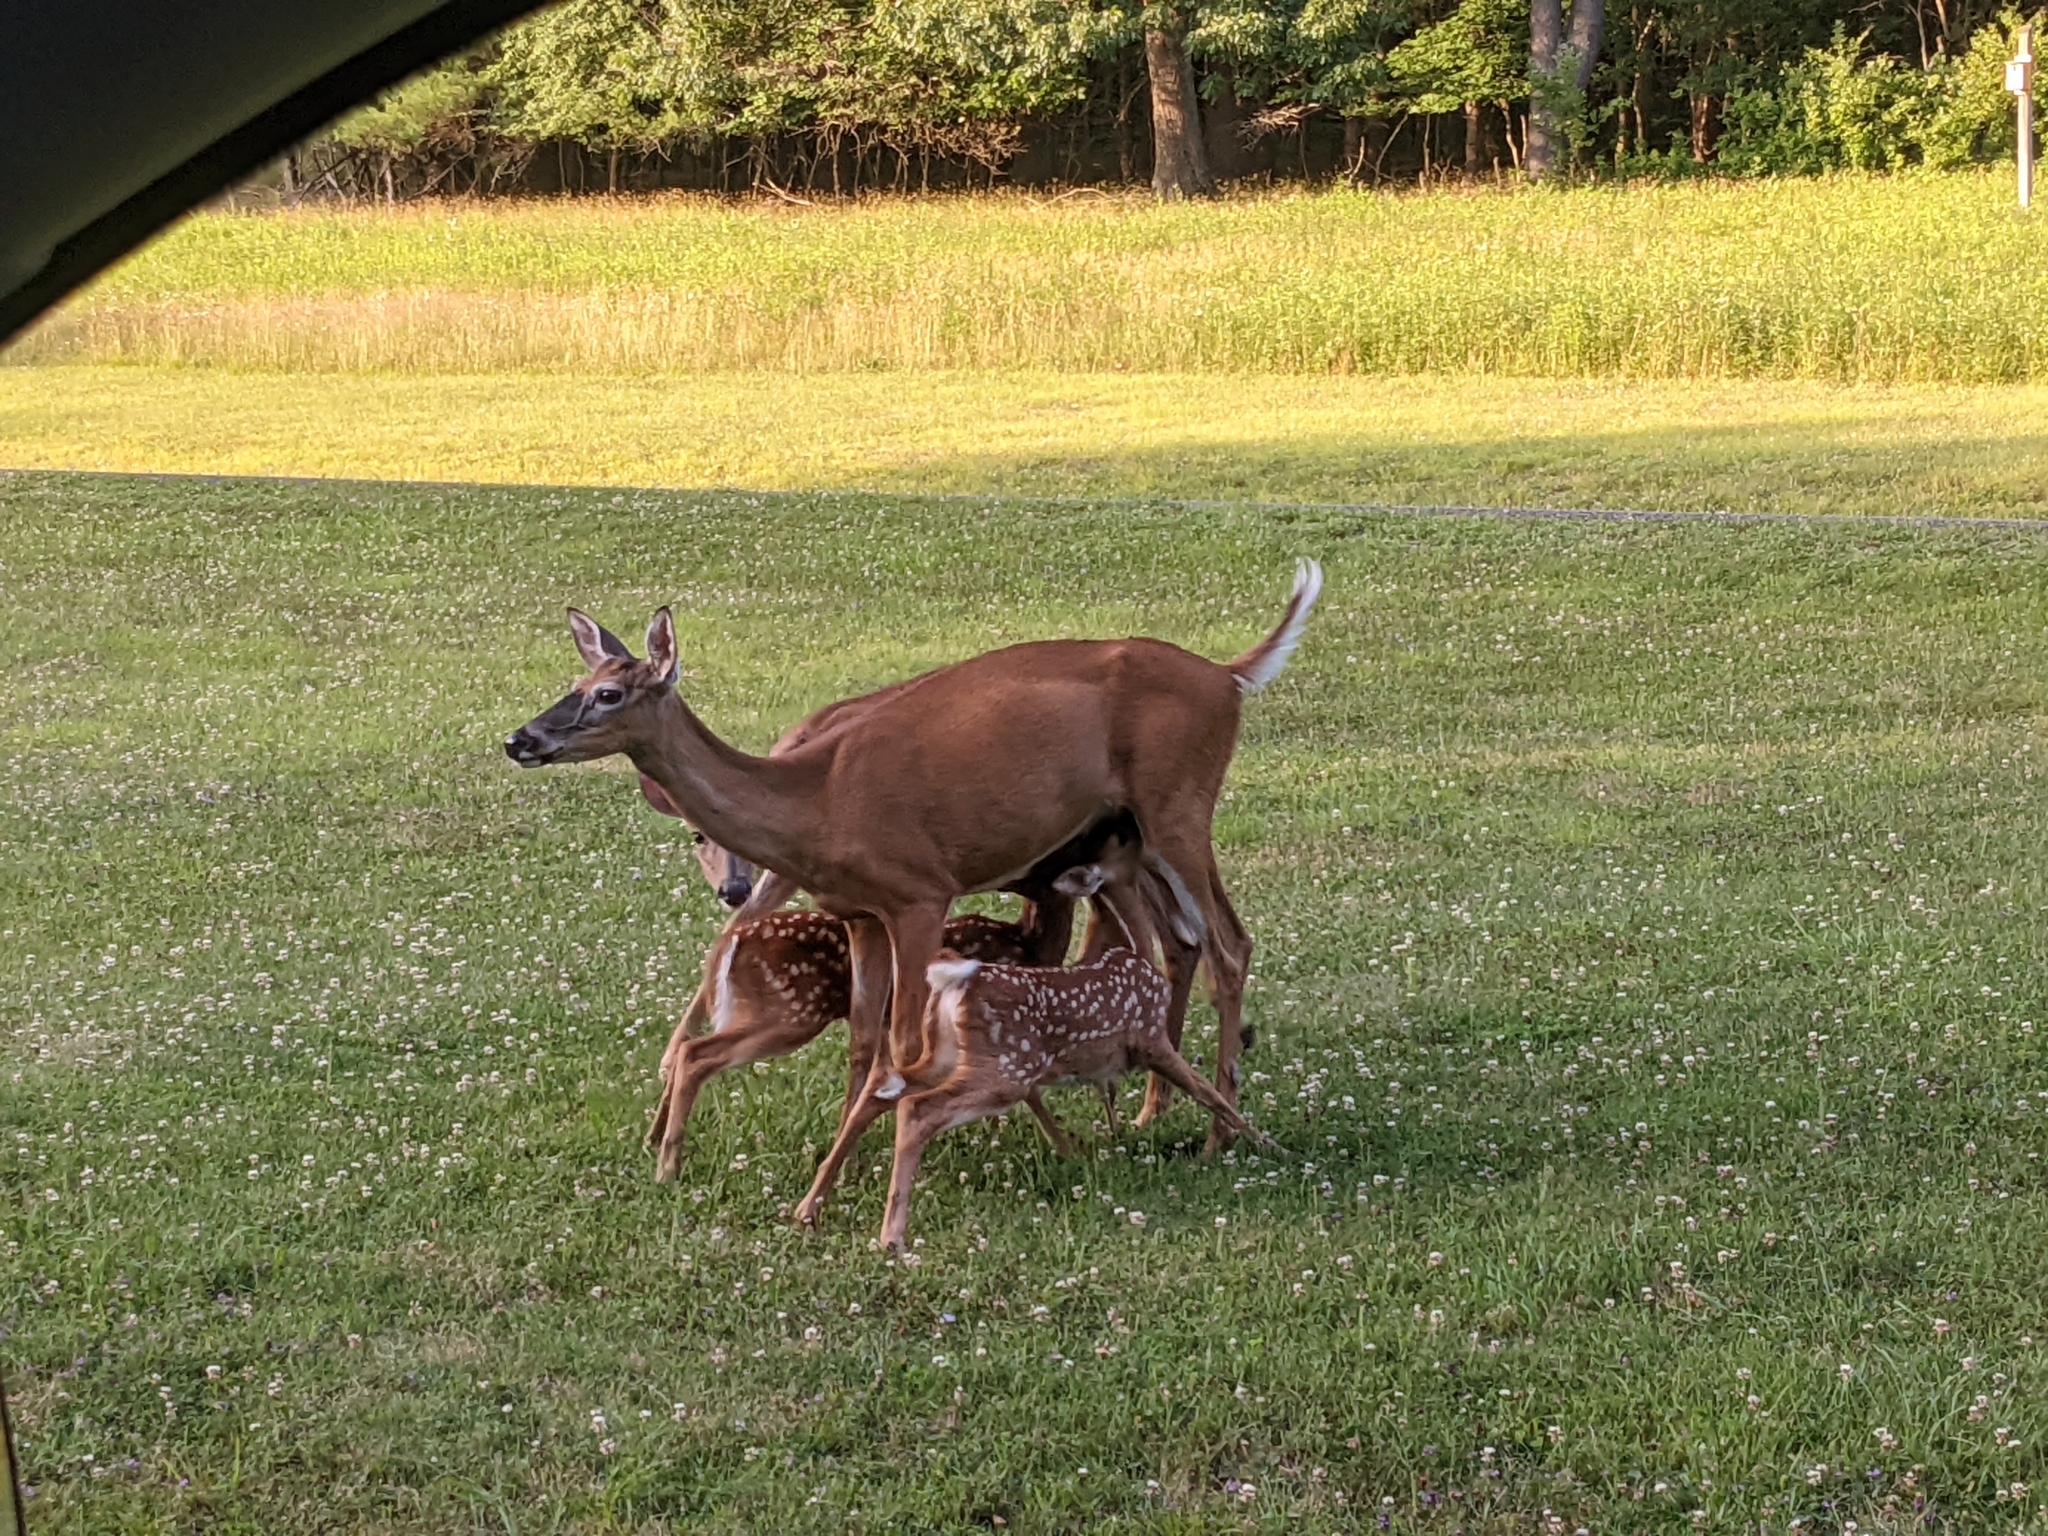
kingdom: Animalia
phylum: Chordata
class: Mammalia
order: Artiodactyla
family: Cervidae
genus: Odocoileus
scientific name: Odocoileus virginianus
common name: White-tailed deer
